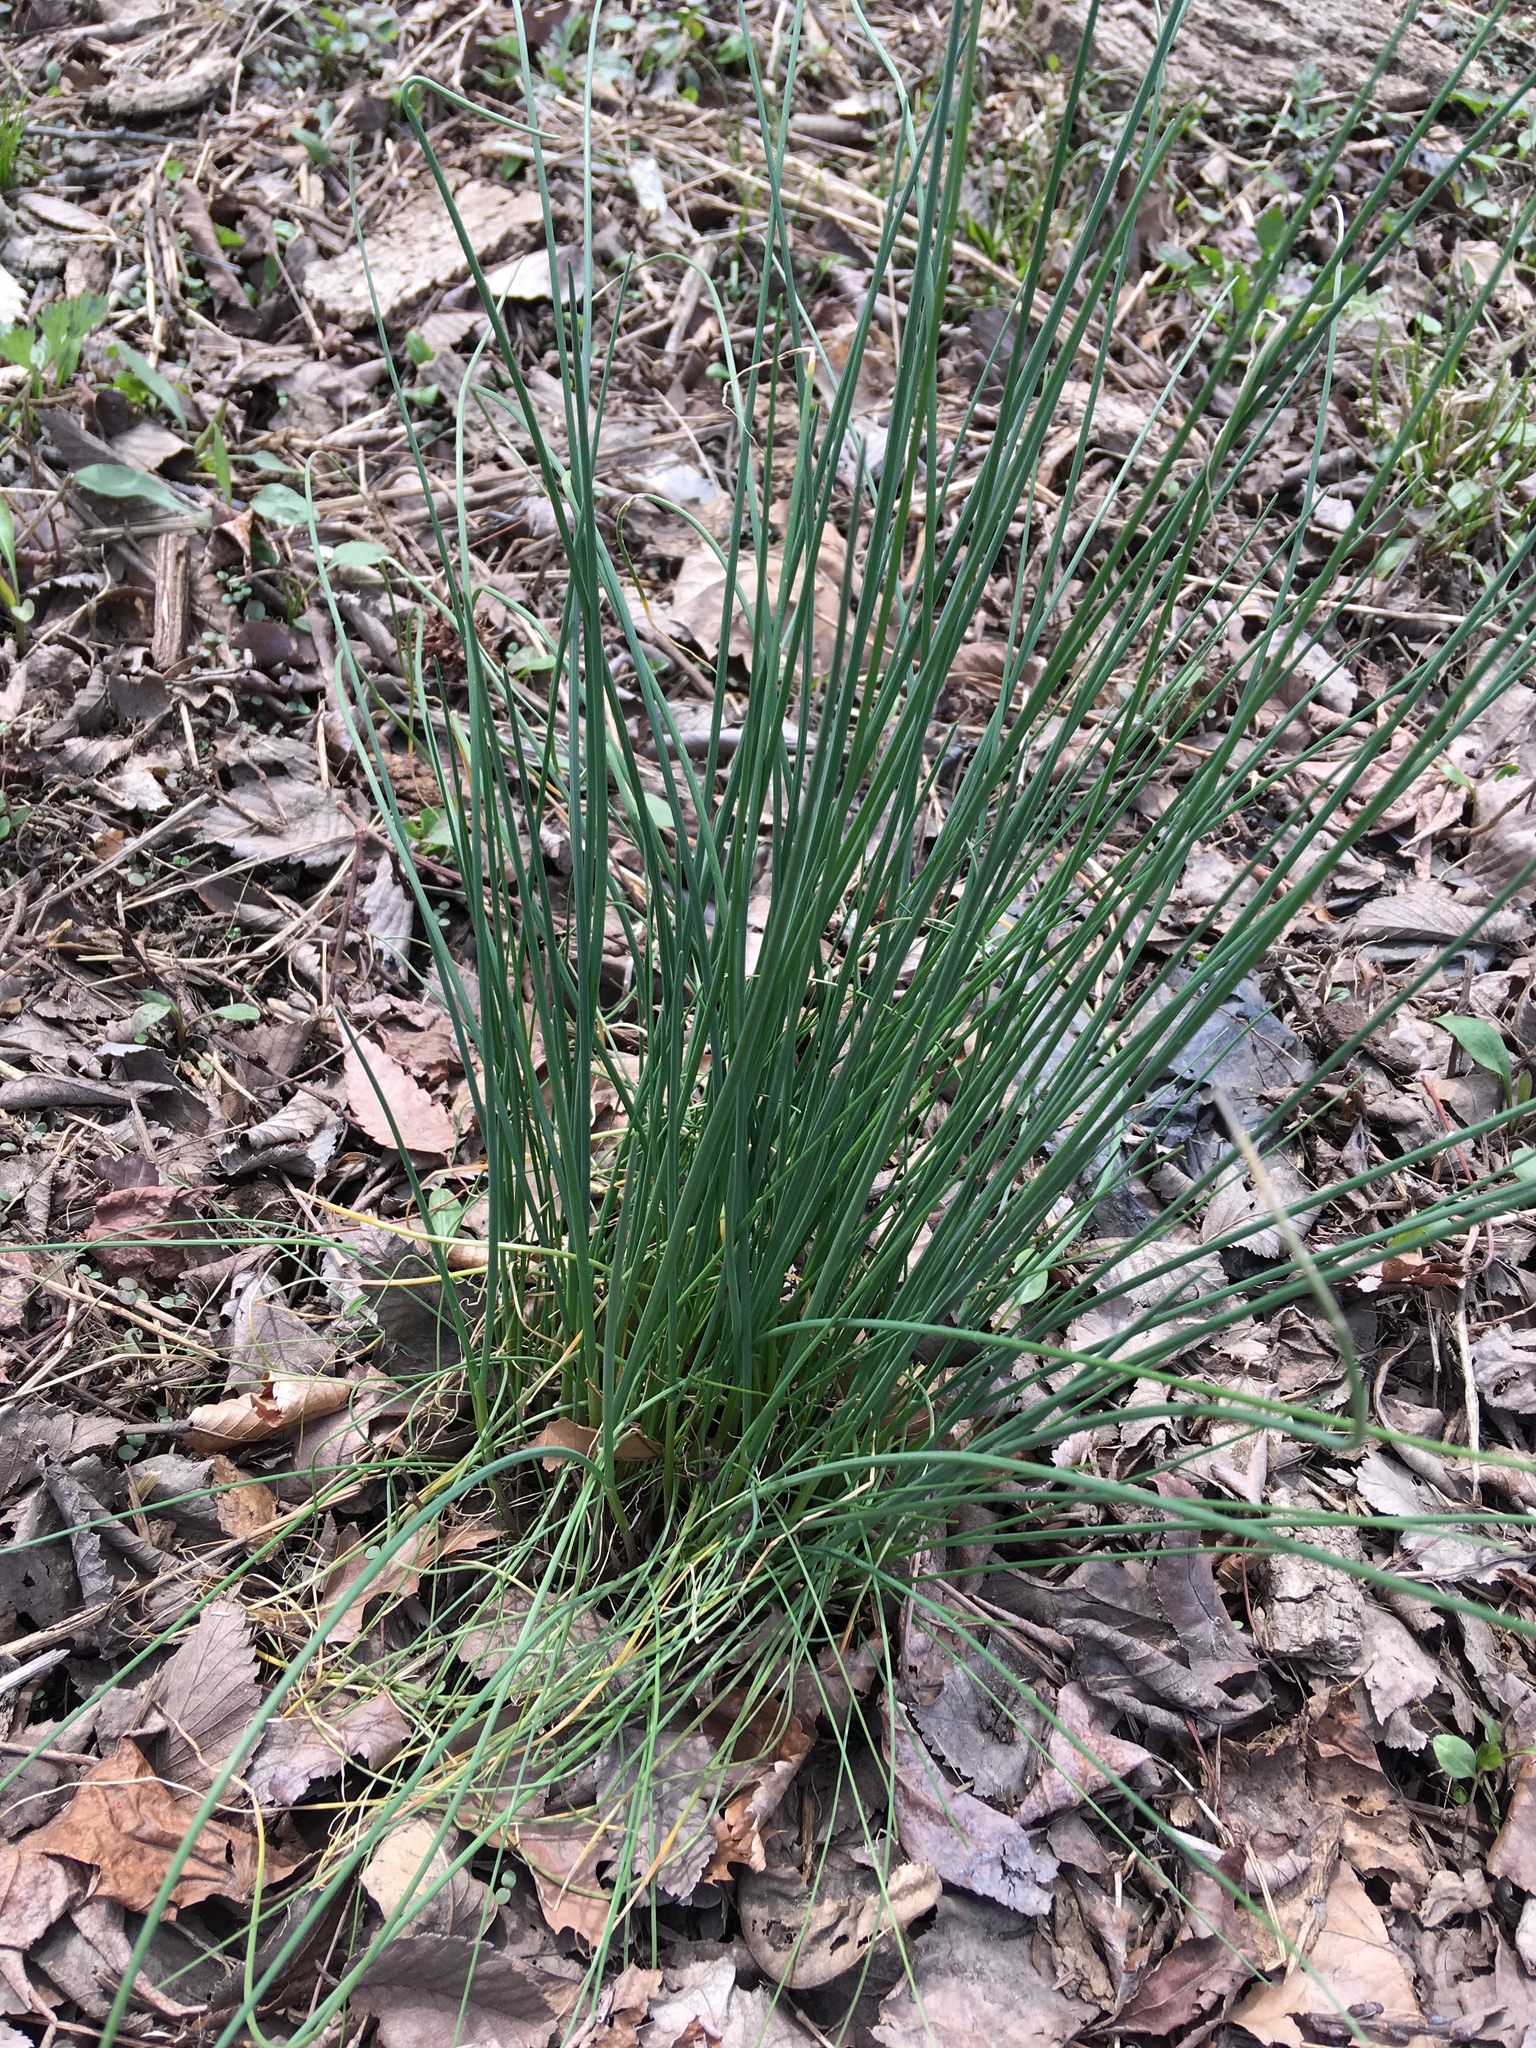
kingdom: Plantae
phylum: Tracheophyta
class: Liliopsida
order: Asparagales
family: Amaryllidaceae
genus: Allium
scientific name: Allium vineale
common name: Crow garlic
